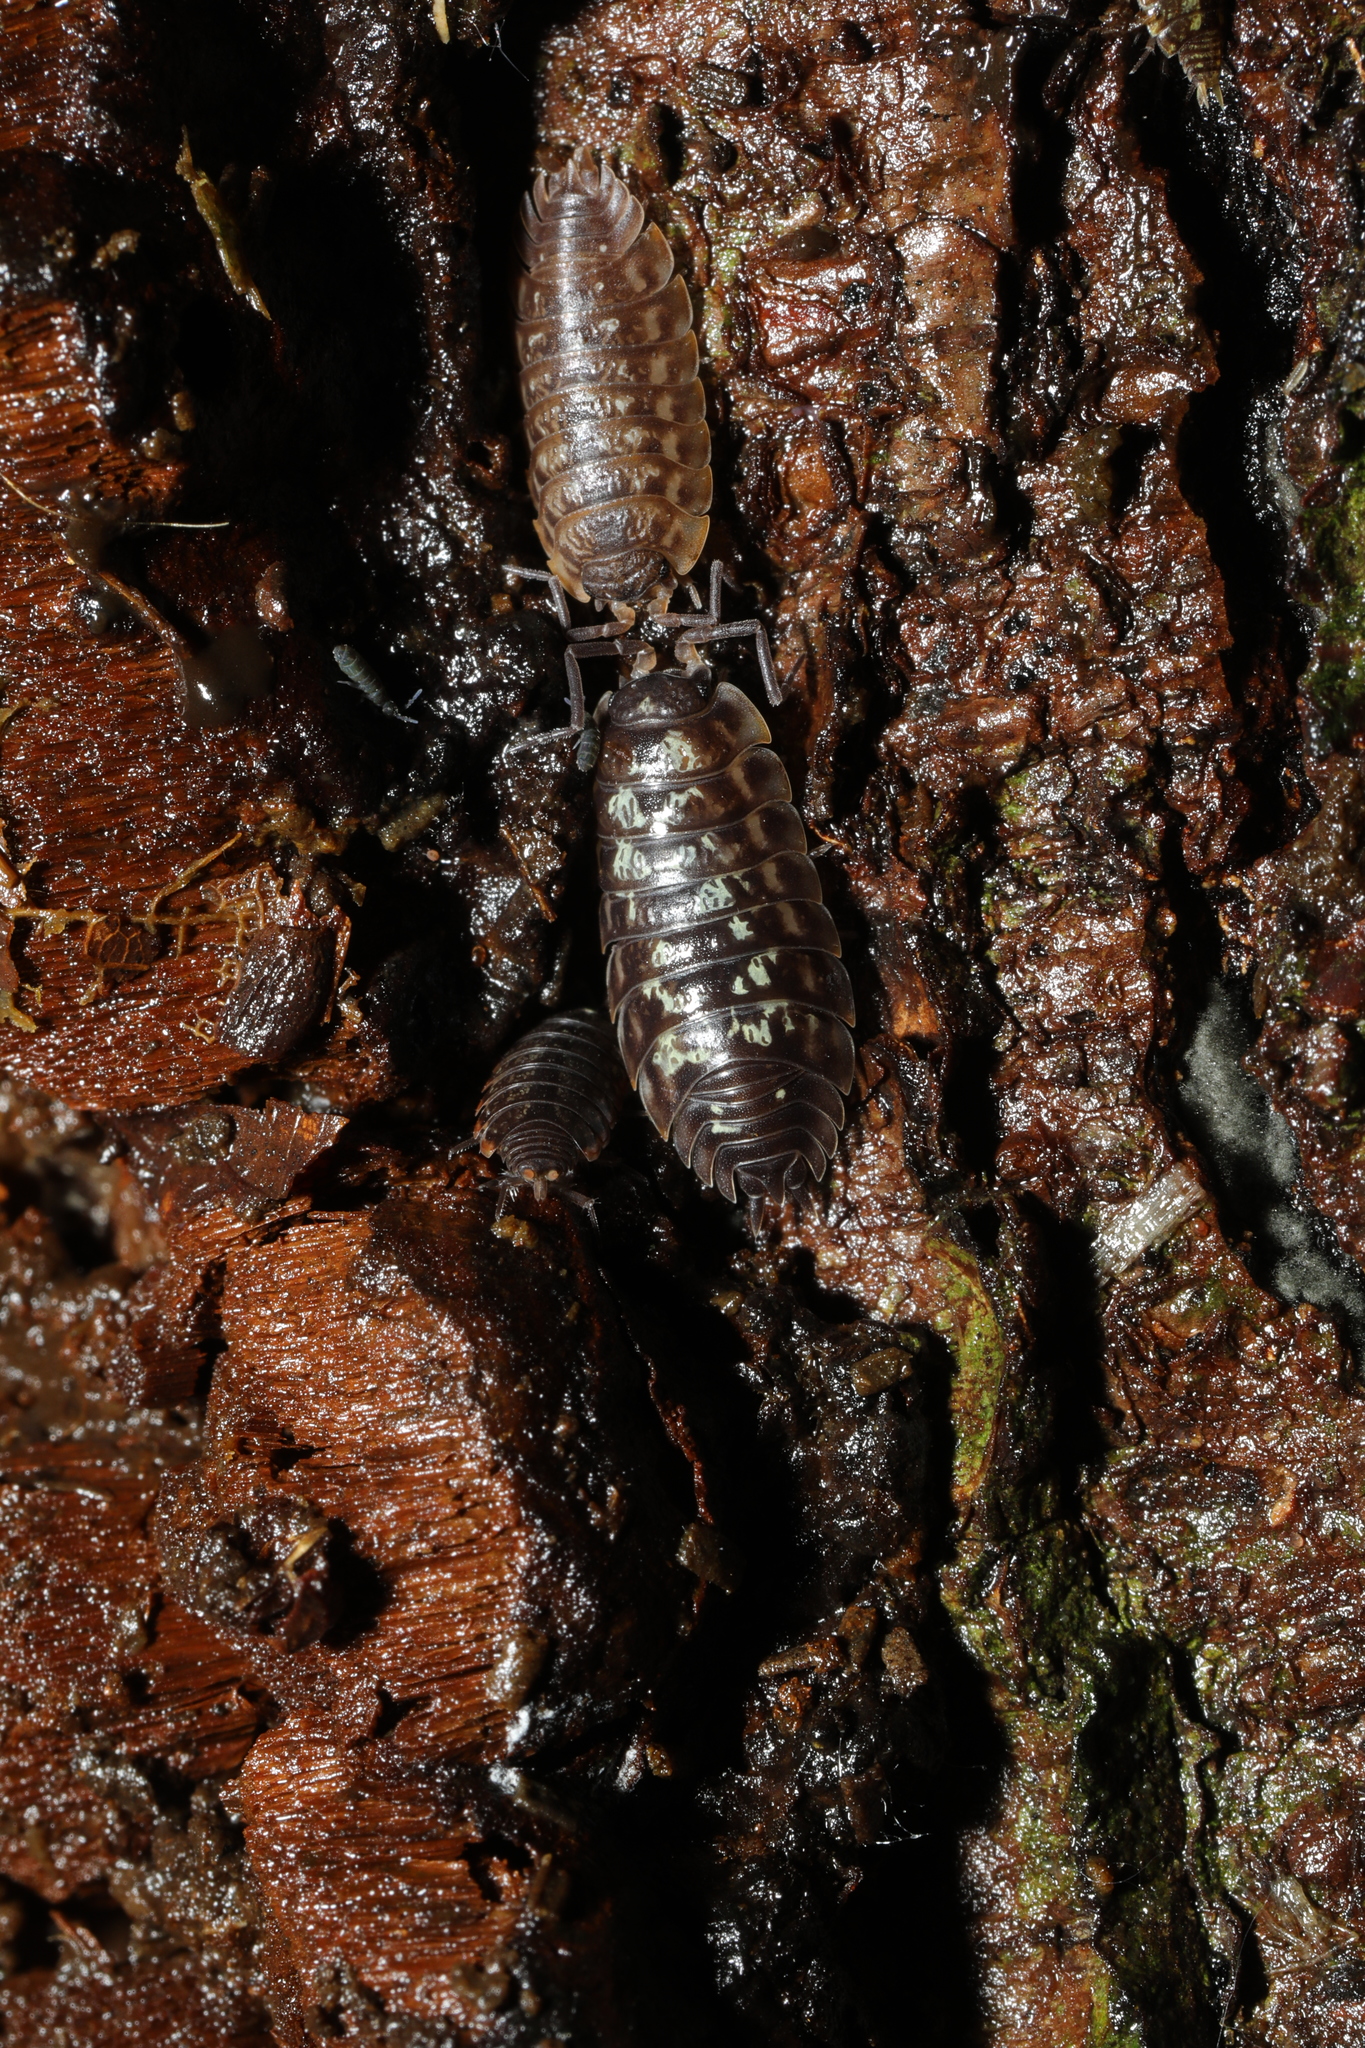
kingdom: Animalia
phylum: Arthropoda
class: Malacostraca
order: Isopoda
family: Oniscidae
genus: Oniscus
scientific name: Oniscus asellus
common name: Common shiny woodlouse
